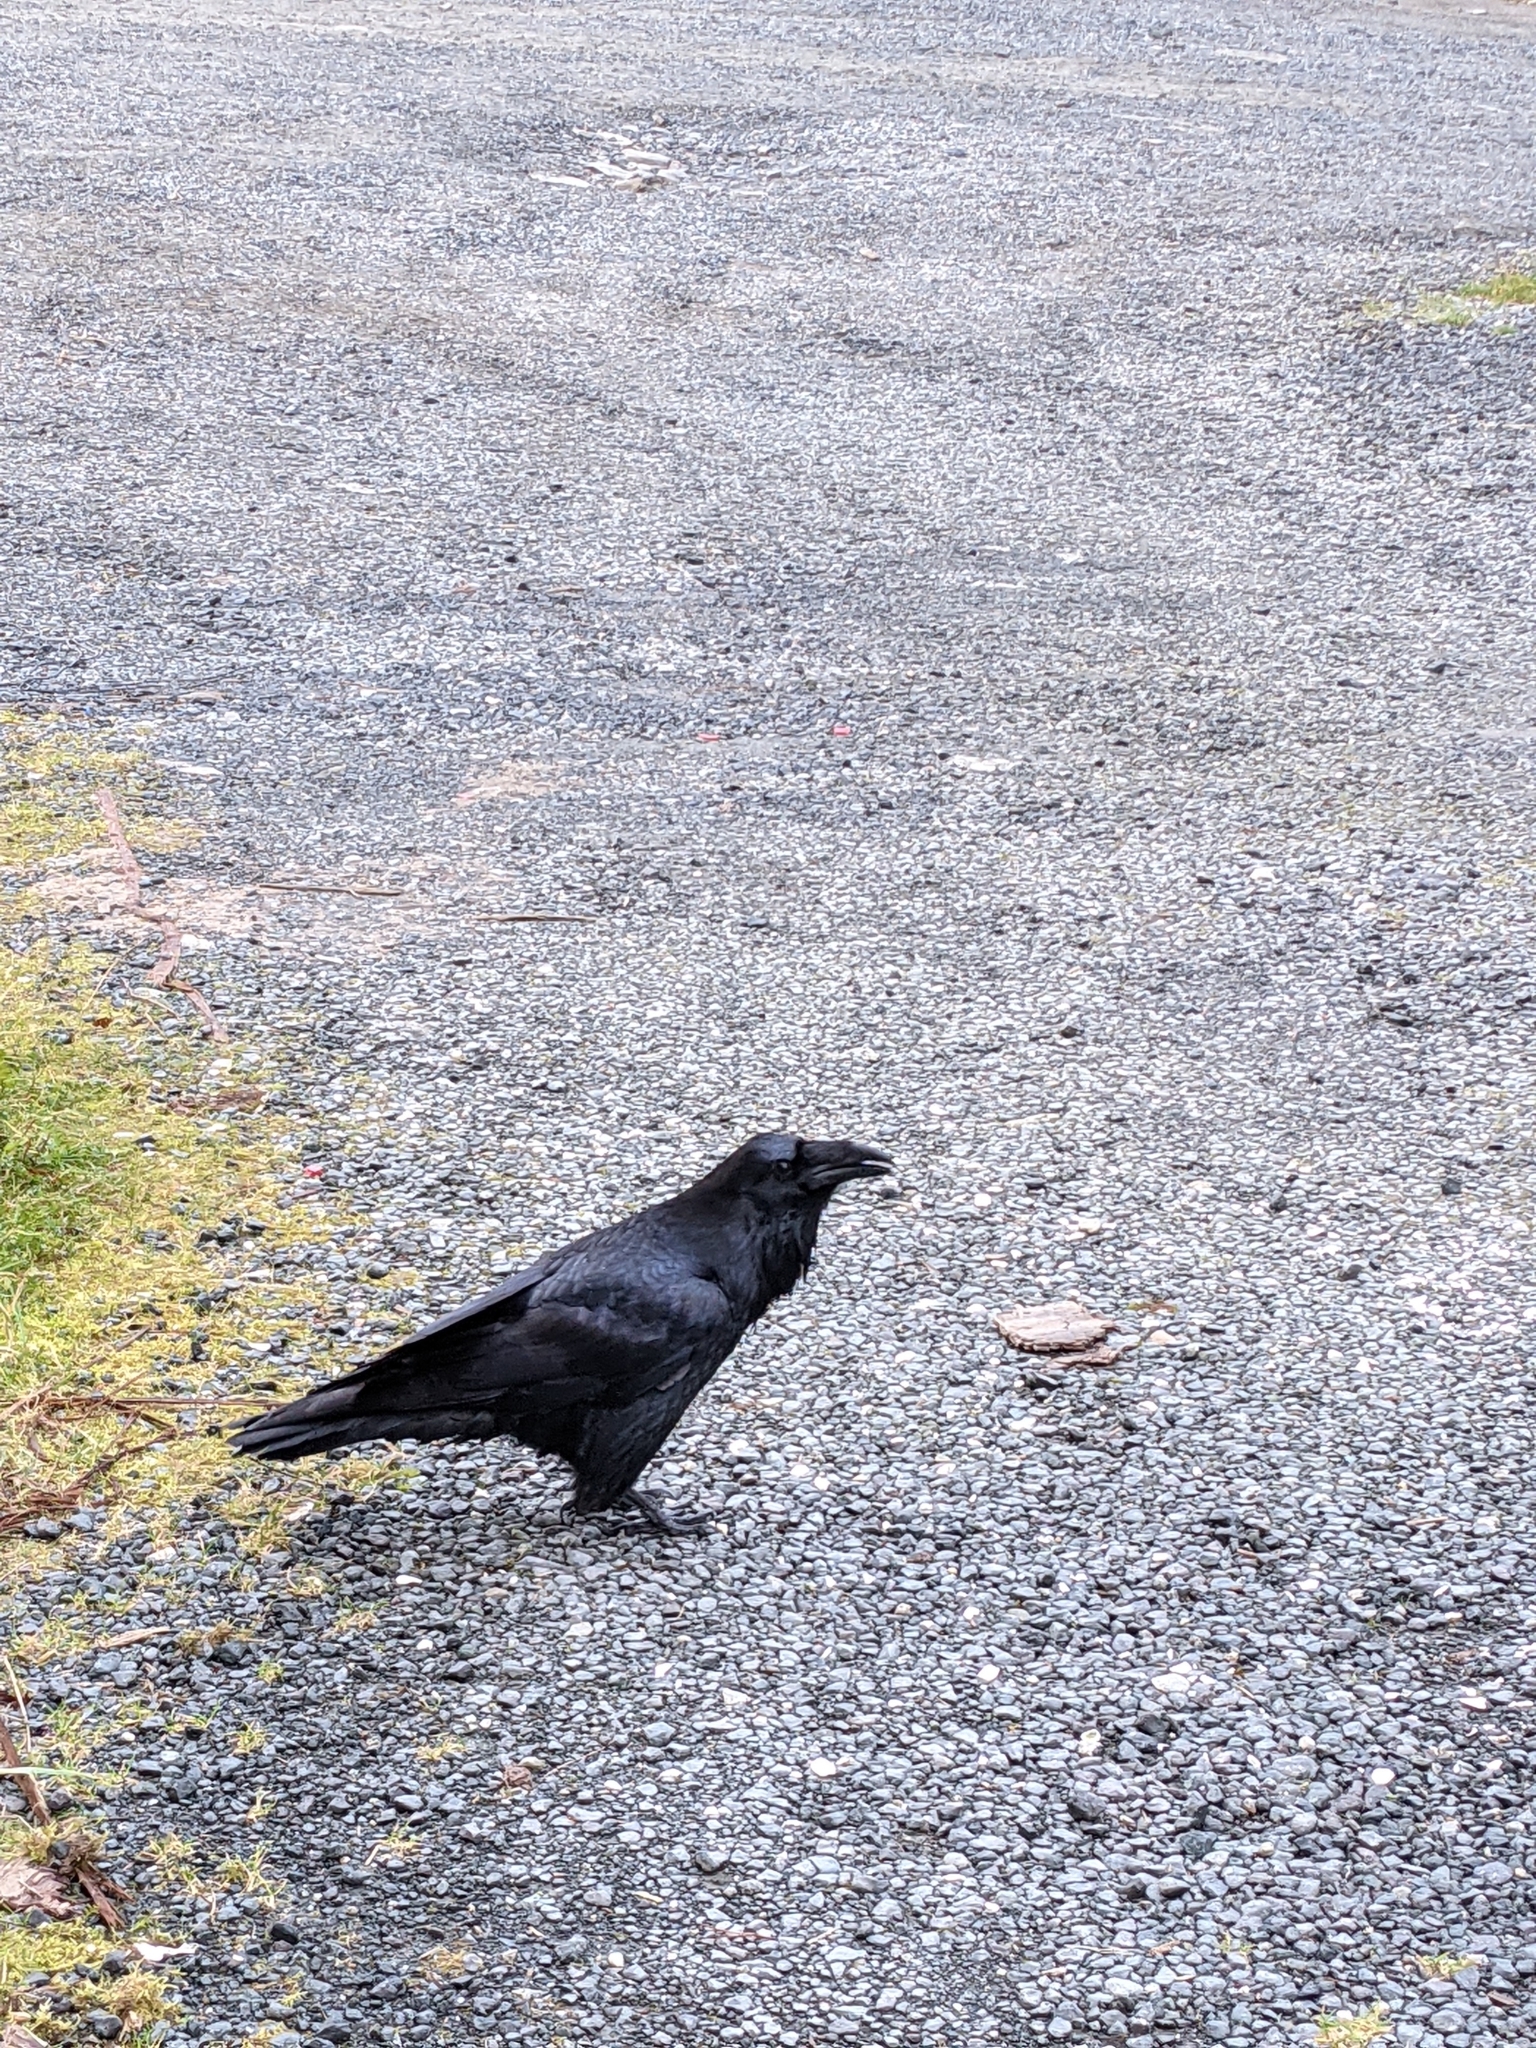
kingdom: Animalia
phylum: Chordata
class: Aves
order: Passeriformes
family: Corvidae
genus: Corvus
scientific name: Corvus corax
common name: Common raven
